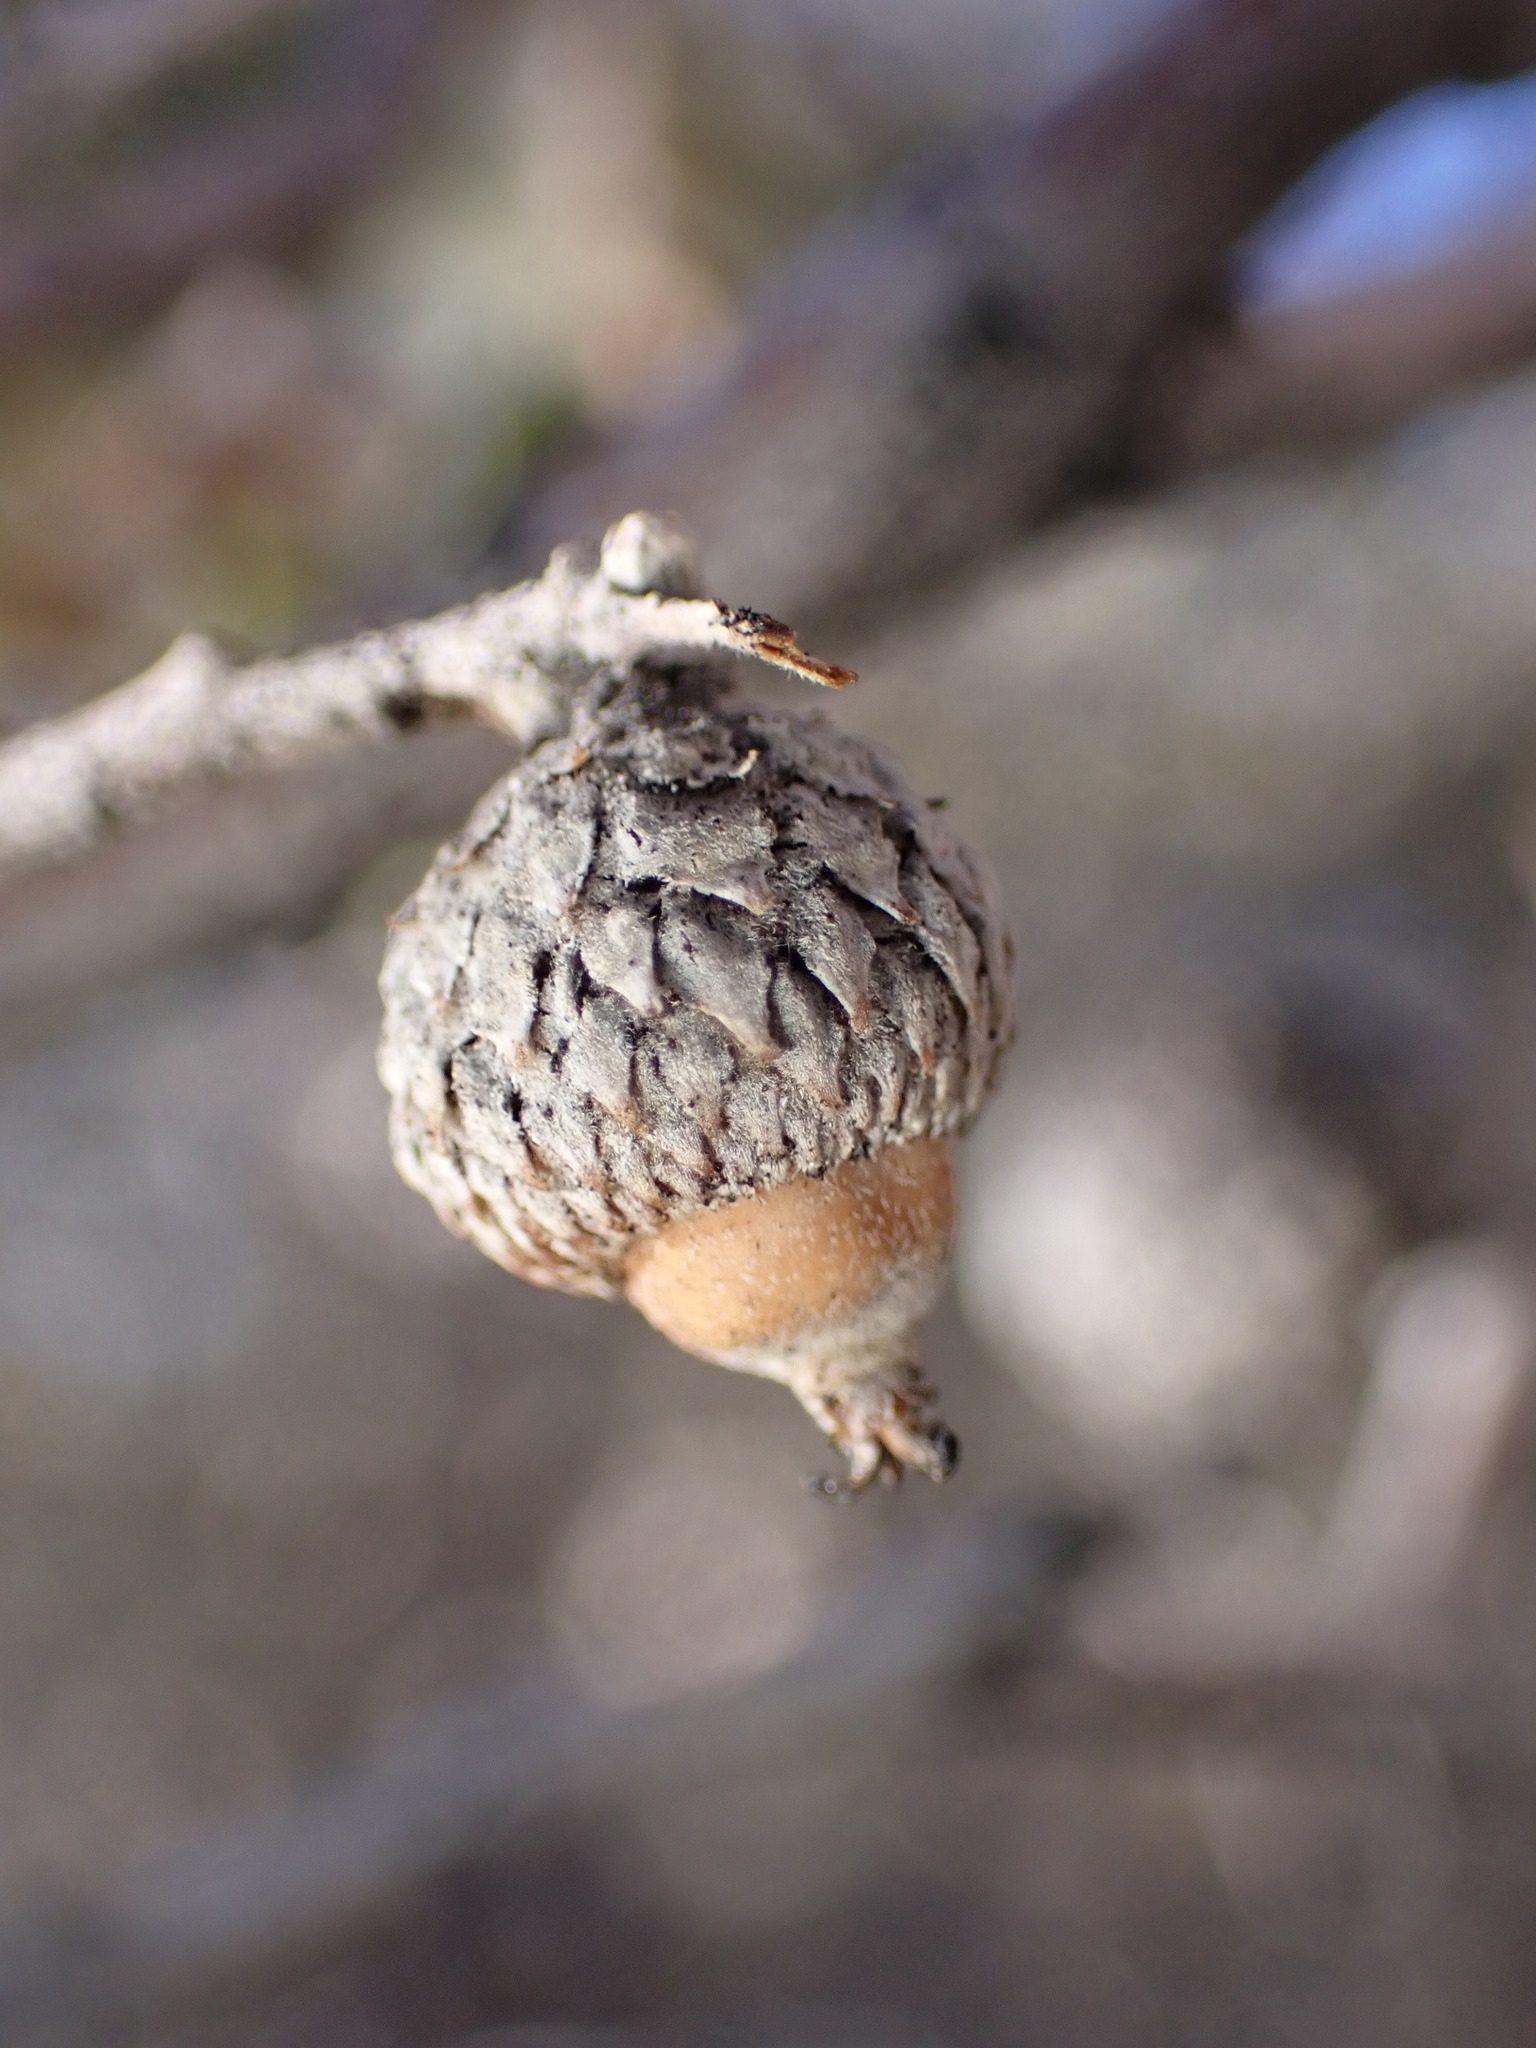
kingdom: Plantae
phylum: Tracheophyta
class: Magnoliopsida
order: Fagales
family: Fagaceae
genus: Quercus
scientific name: Quercus cornelius-mulleri
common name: Muller oak
